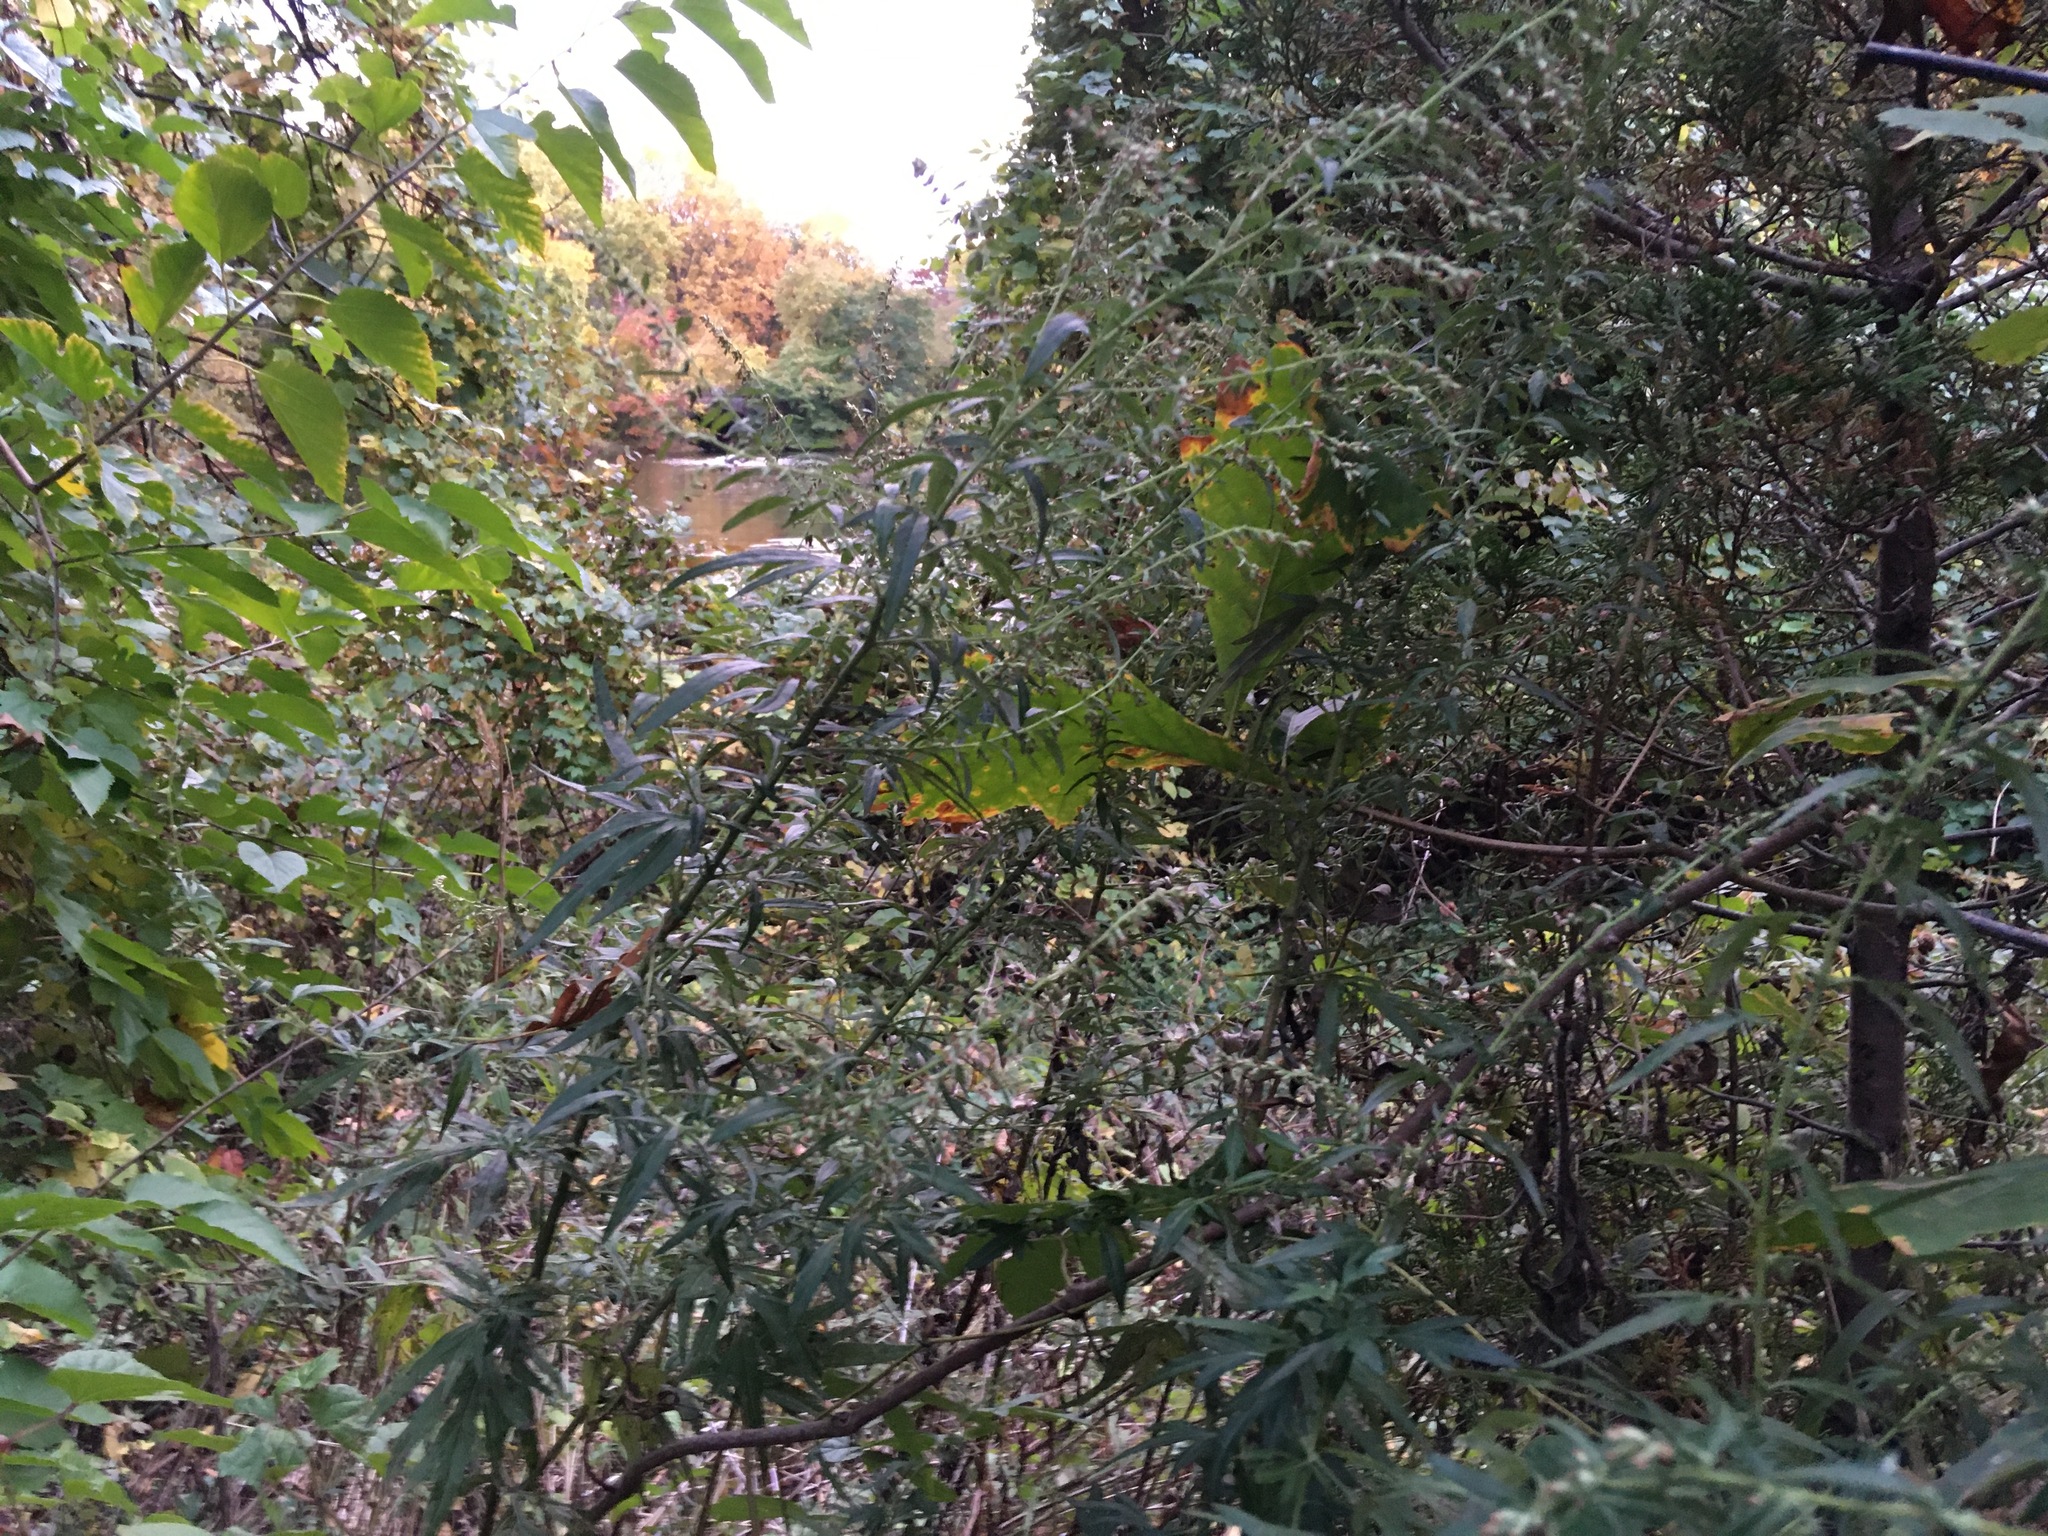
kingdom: Plantae
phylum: Tracheophyta
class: Magnoliopsida
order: Asterales
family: Asteraceae
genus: Artemisia
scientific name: Artemisia vulgaris
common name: Mugwort
